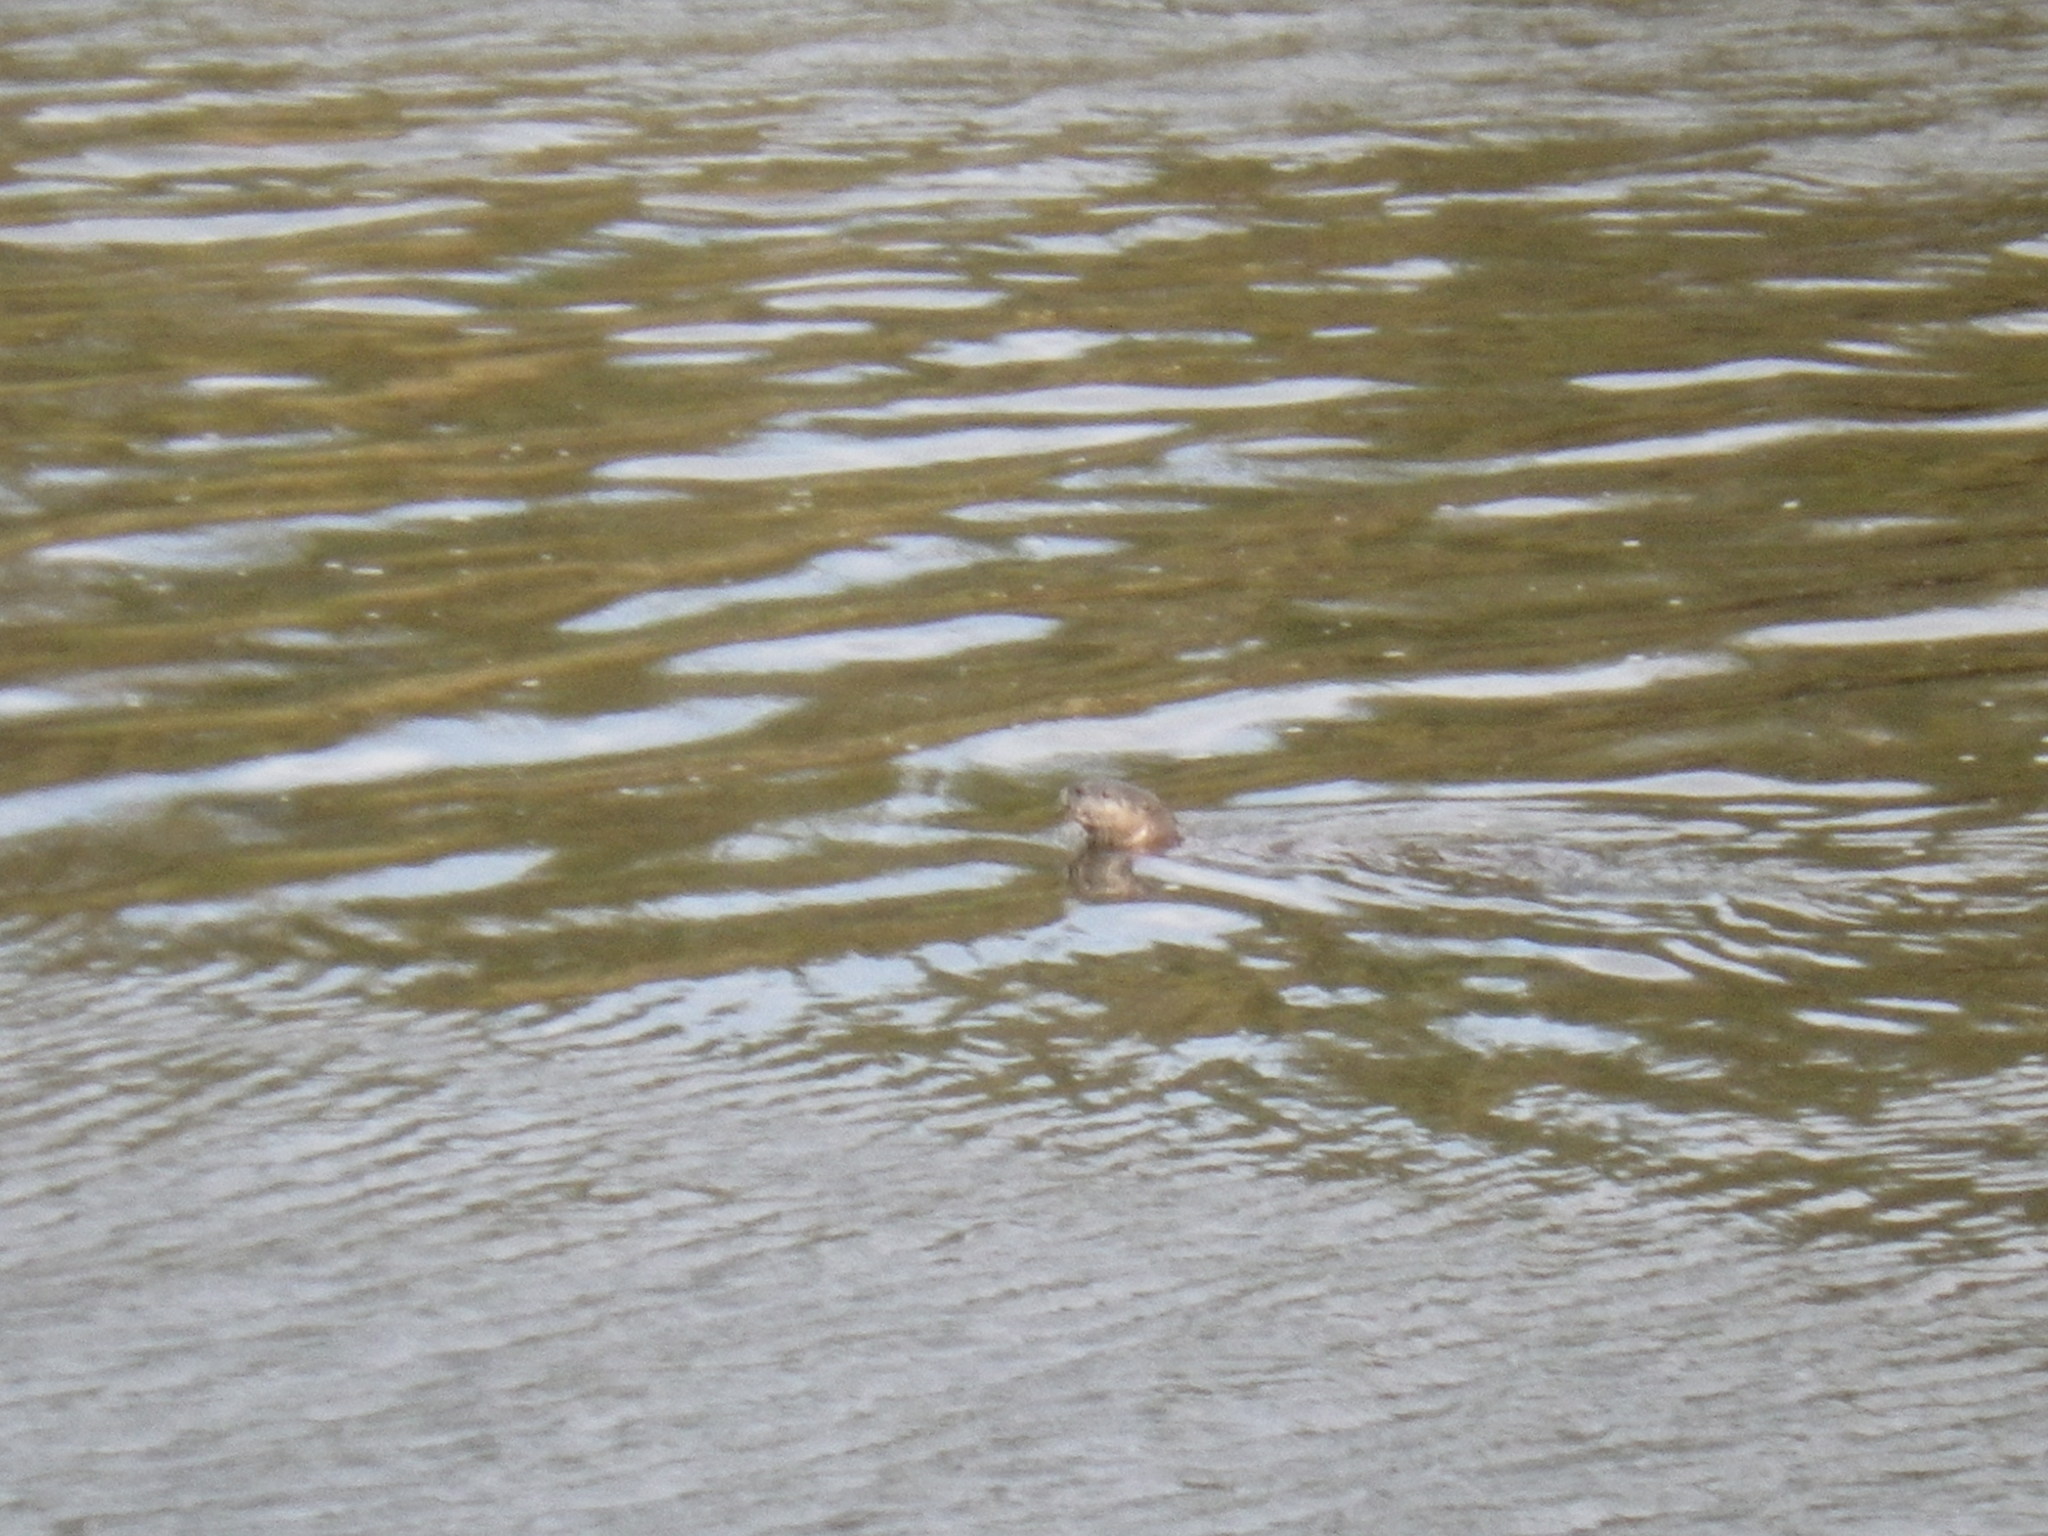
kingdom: Animalia
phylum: Chordata
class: Mammalia
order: Carnivora
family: Mustelidae
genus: Lontra
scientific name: Lontra canadensis
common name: North american river otter
